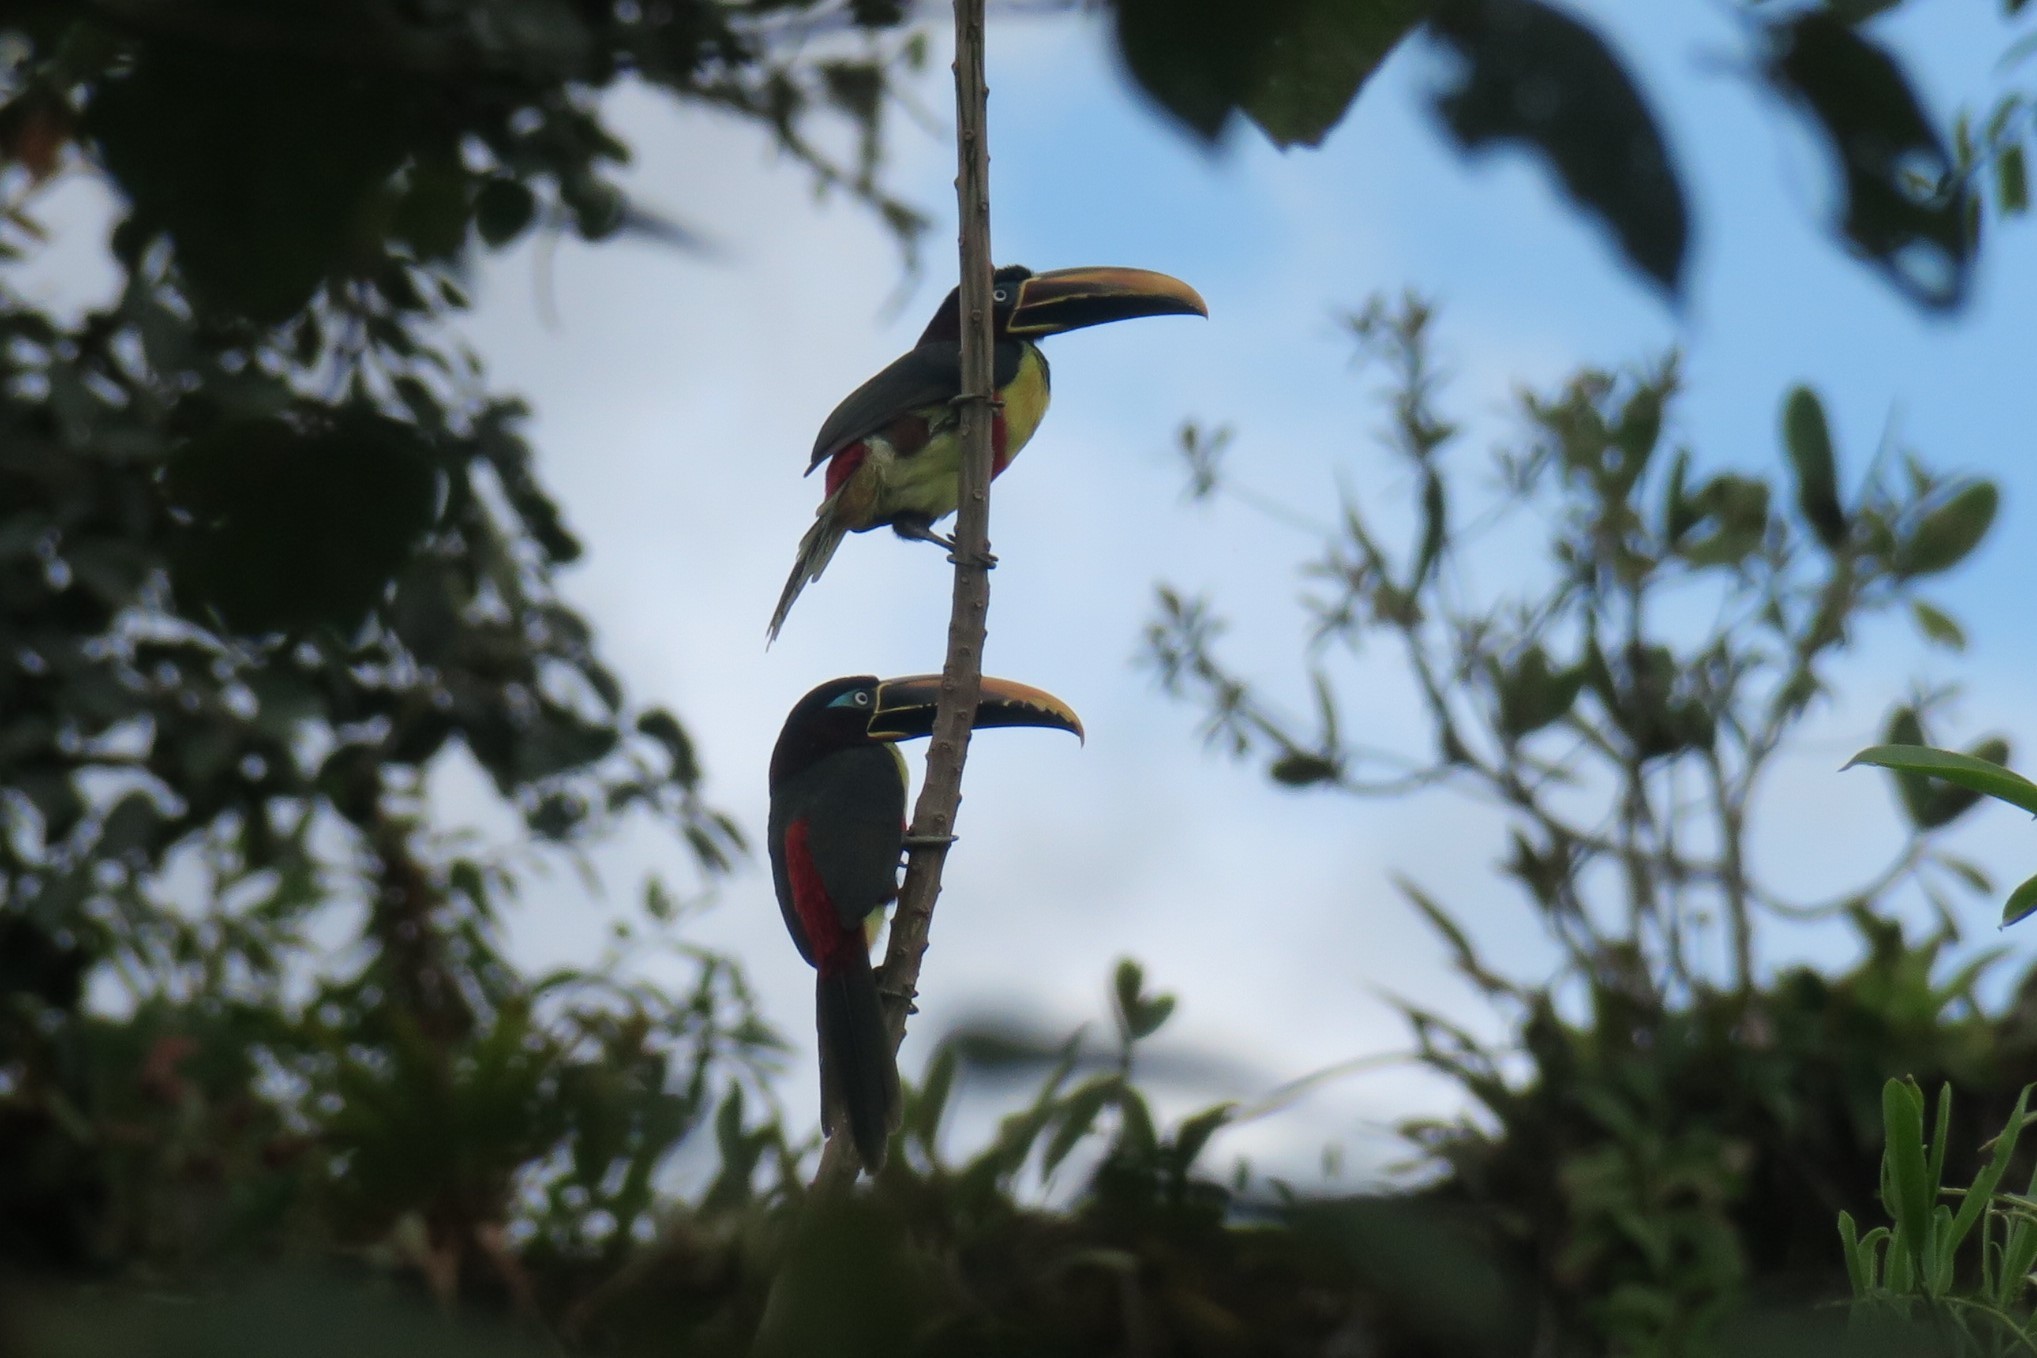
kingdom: Animalia
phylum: Chordata
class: Aves
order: Piciformes
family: Ramphastidae
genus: Pteroglossus
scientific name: Pteroglossus castanotis
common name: Chestnut-eared aracari
